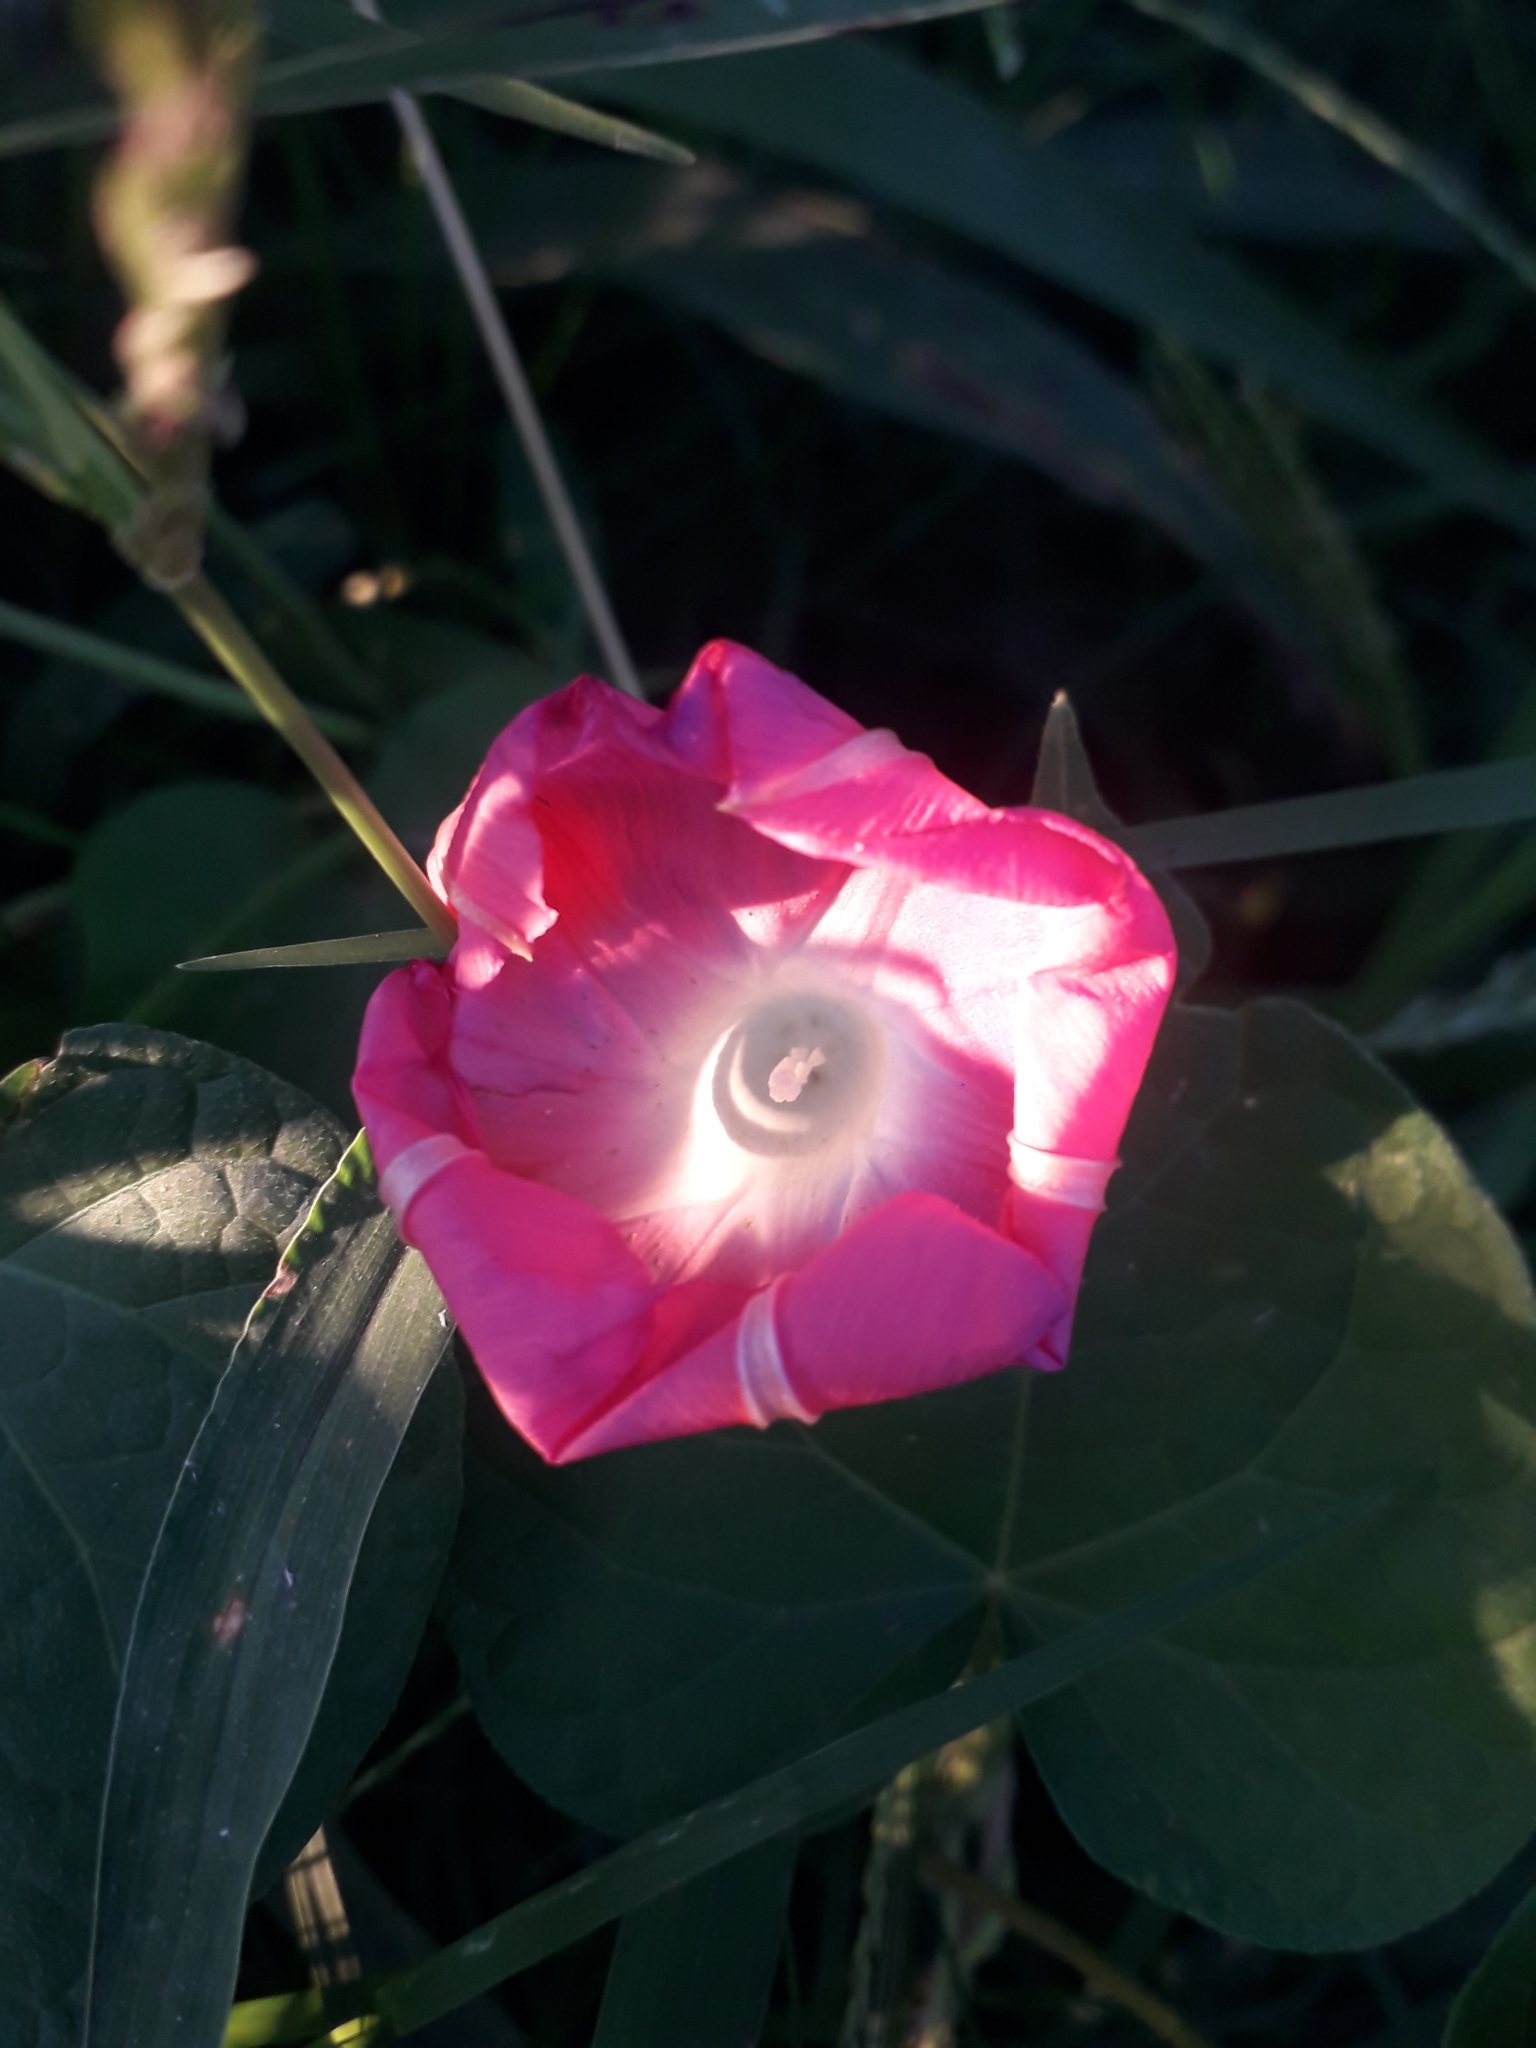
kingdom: Plantae
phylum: Tracheophyta
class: Magnoliopsida
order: Solanales
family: Convolvulaceae
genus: Ipomoea
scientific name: Ipomoea purpurea
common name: Common morning-glory
